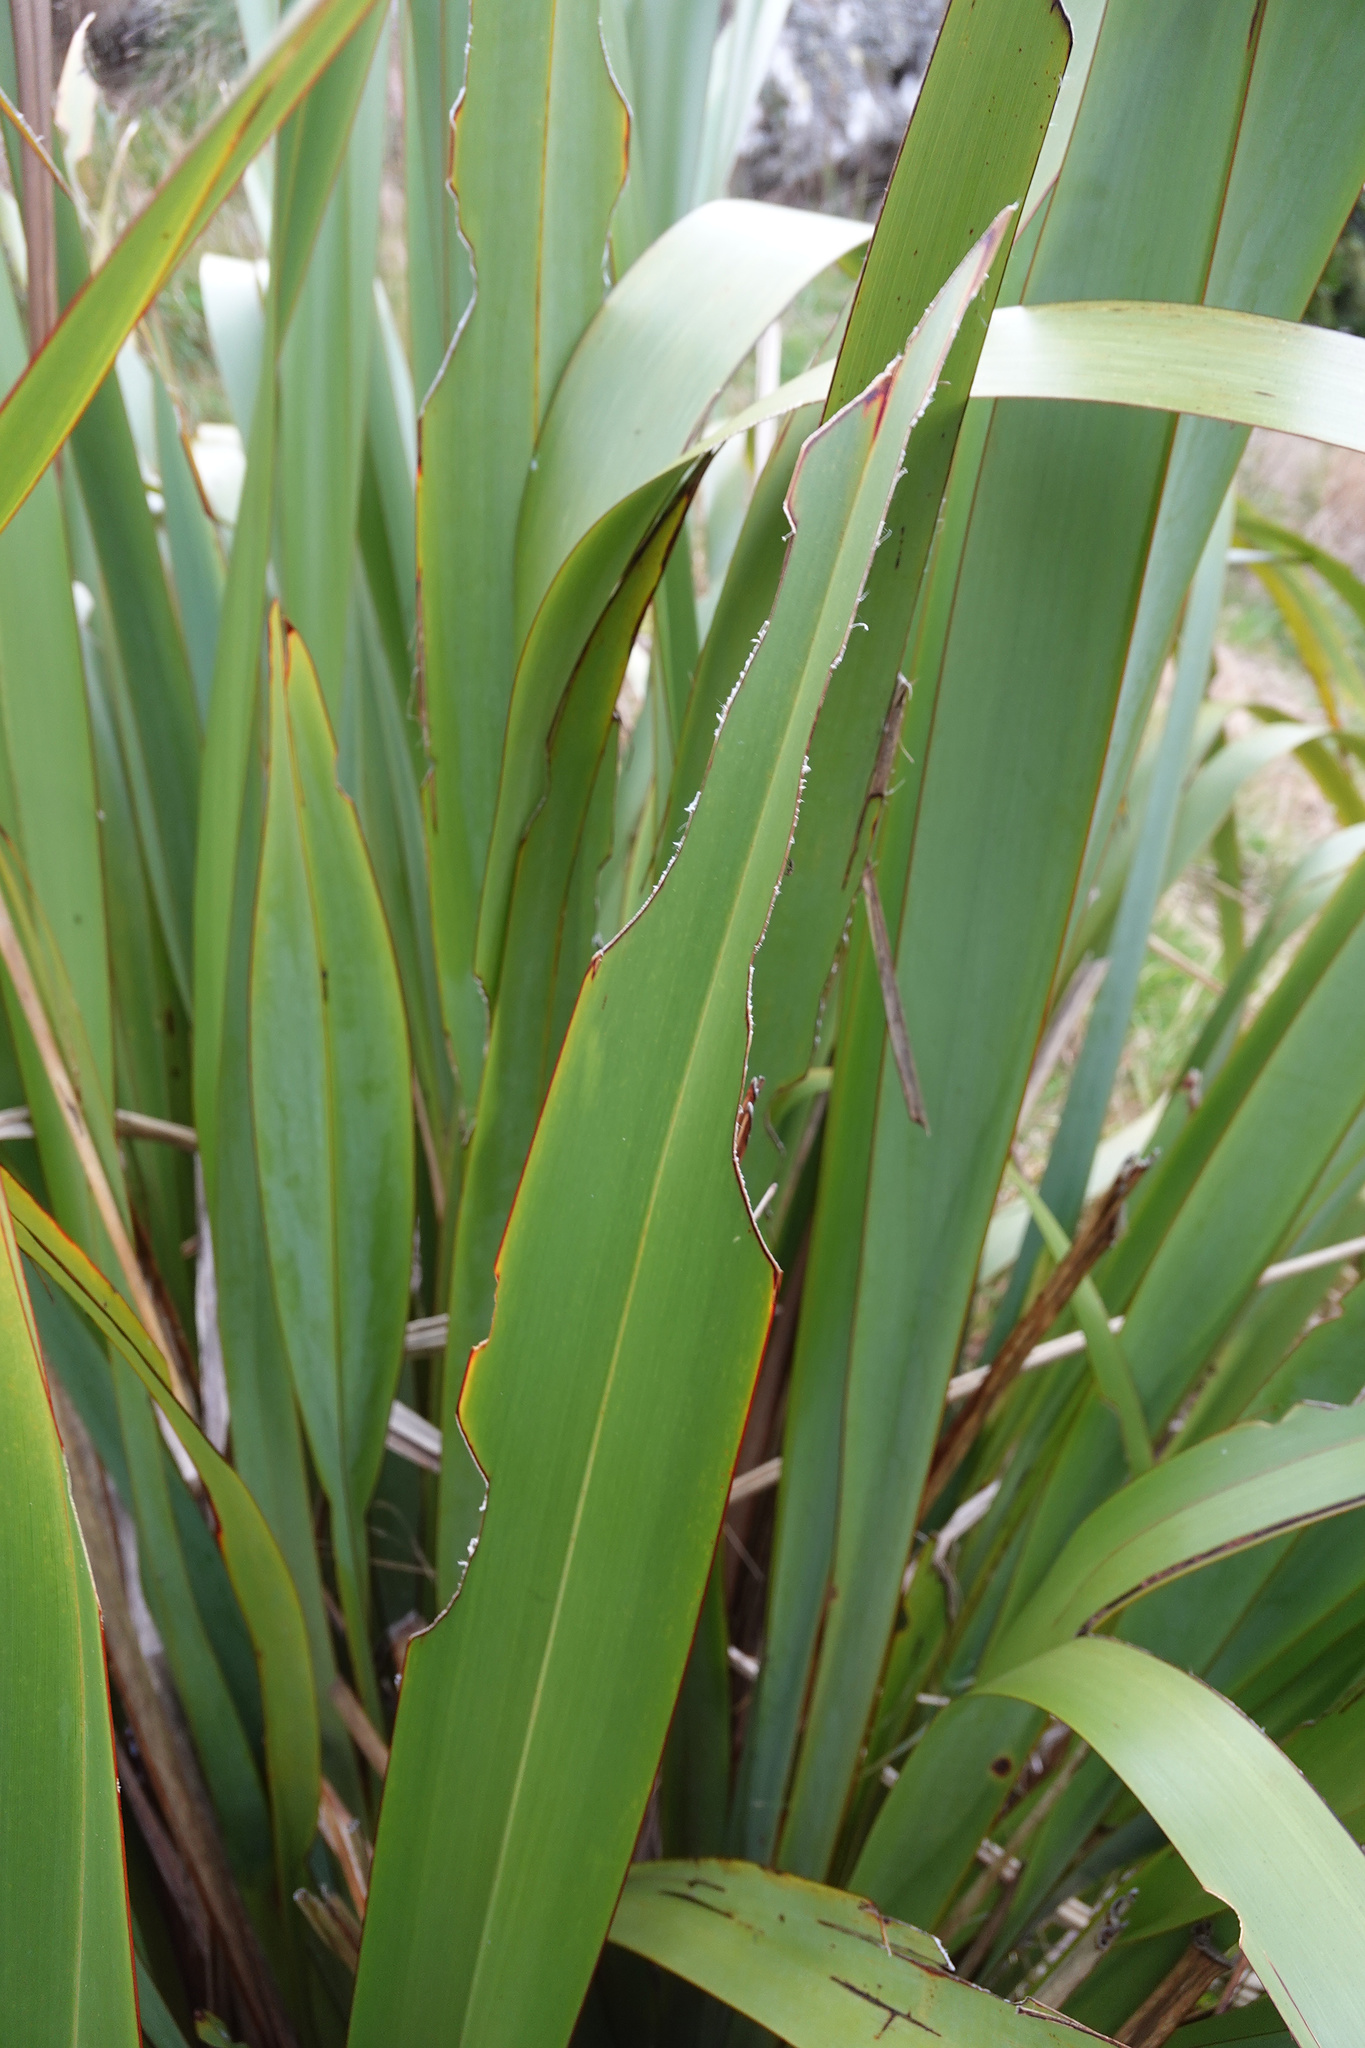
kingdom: Animalia
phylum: Arthropoda
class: Insecta
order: Lepidoptera
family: Noctuidae
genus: Ichneutica
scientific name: Ichneutica
